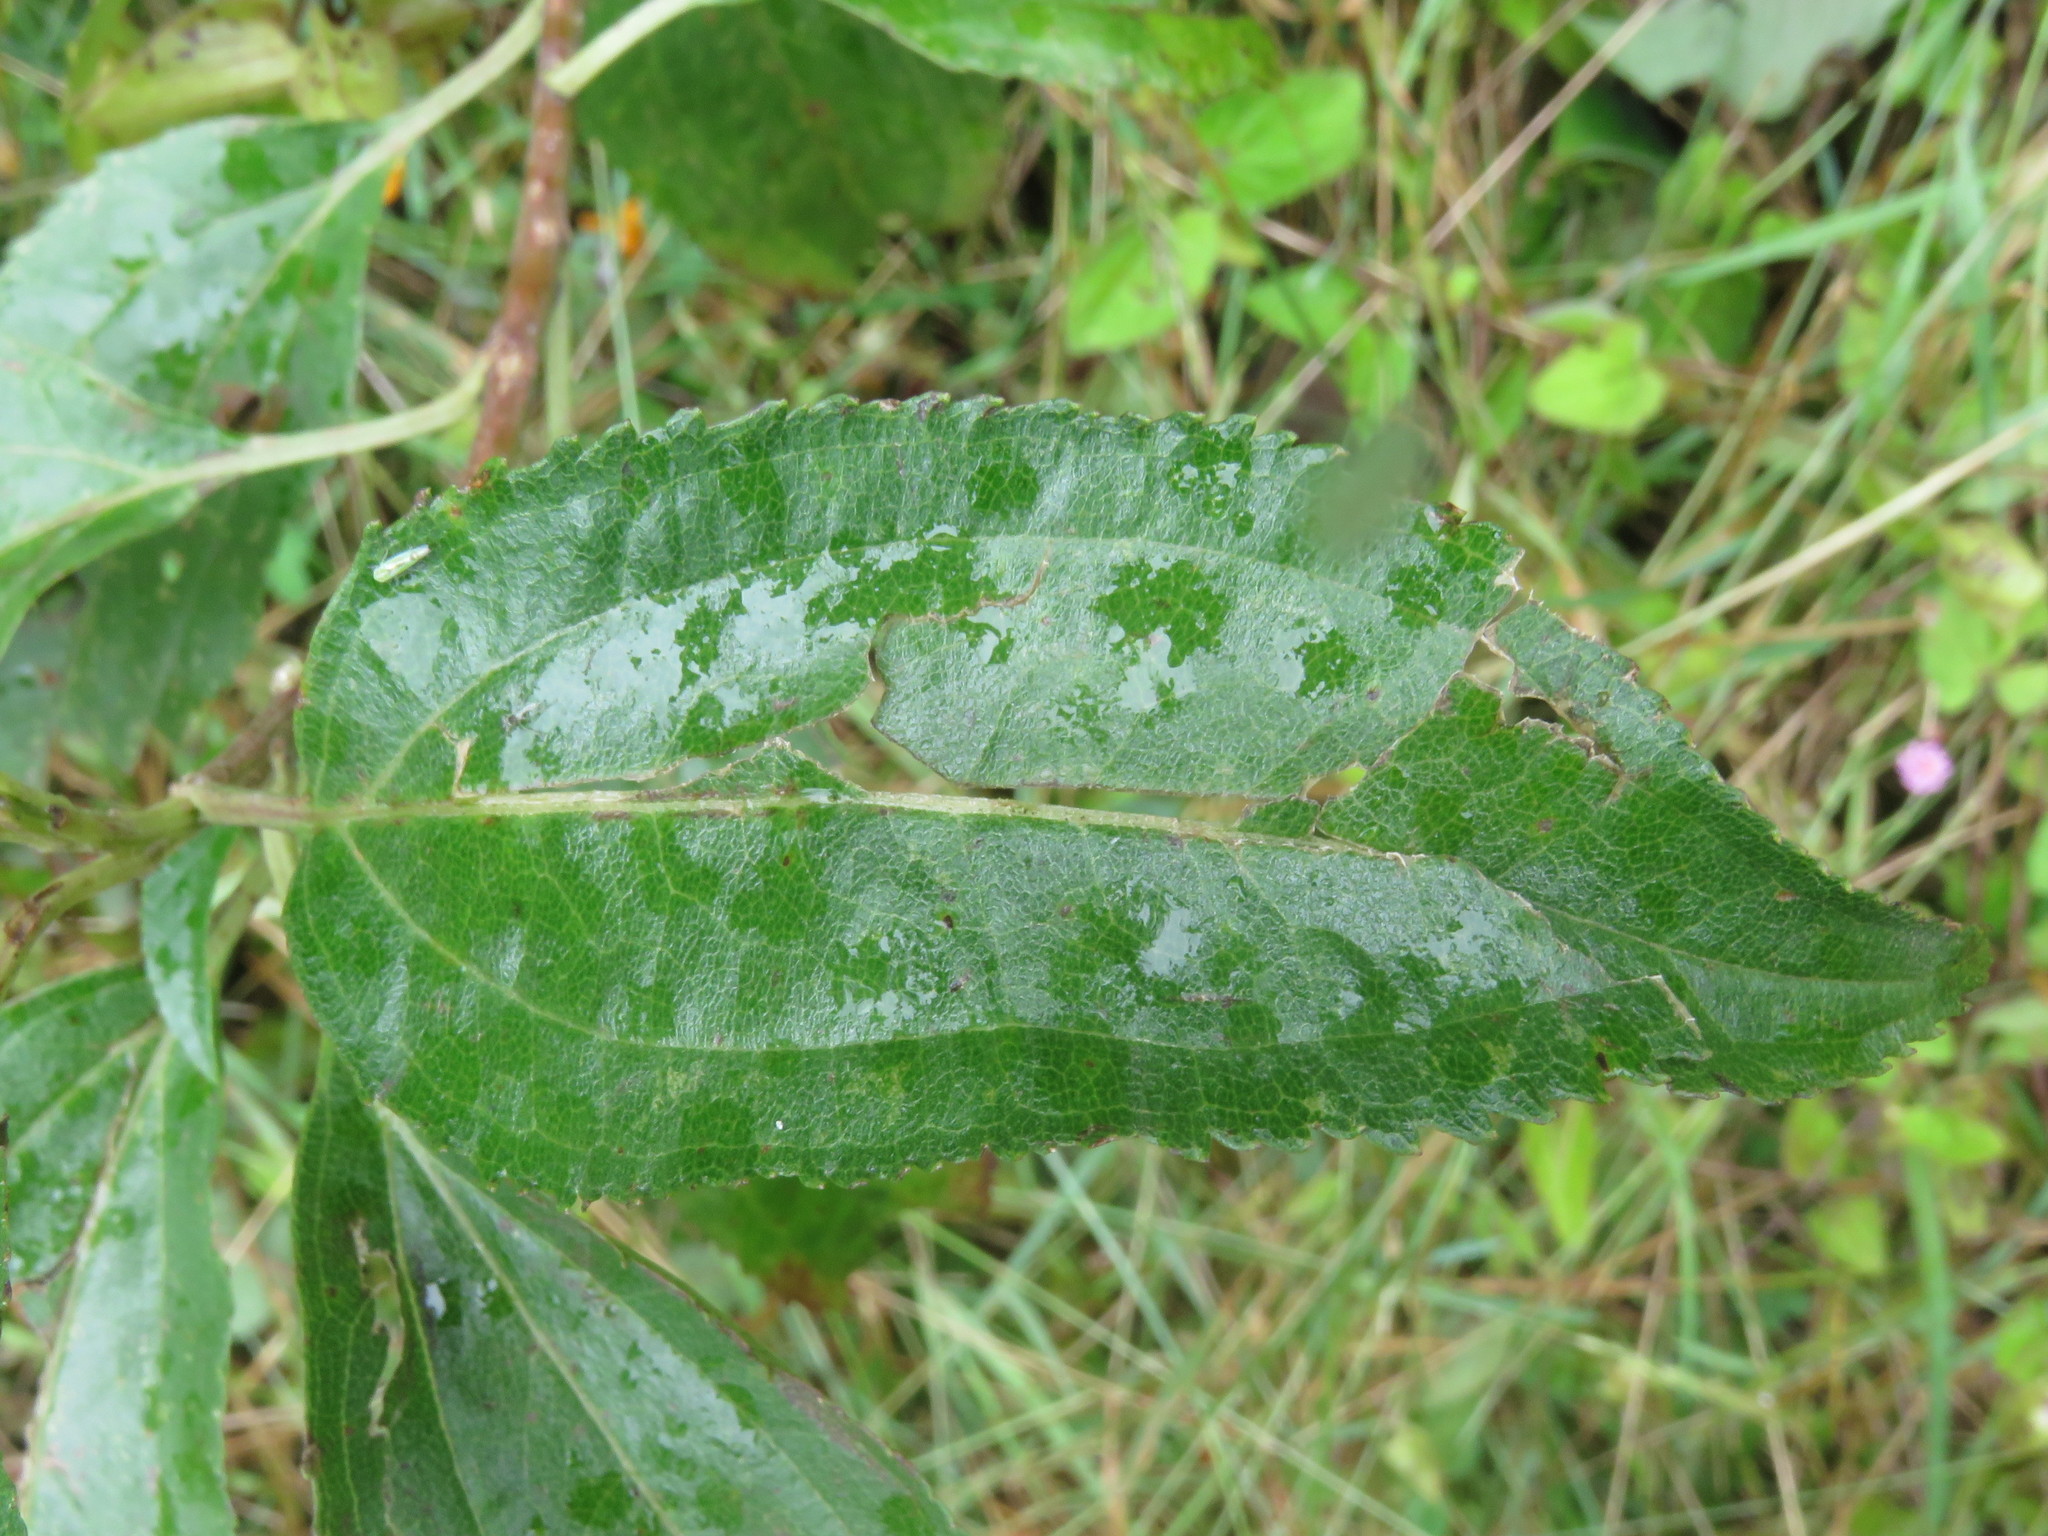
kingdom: Plantae
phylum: Tracheophyta
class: Magnoliopsida
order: Asterales
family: Asteraceae
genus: Baccharis
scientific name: Baccharis latifolia
